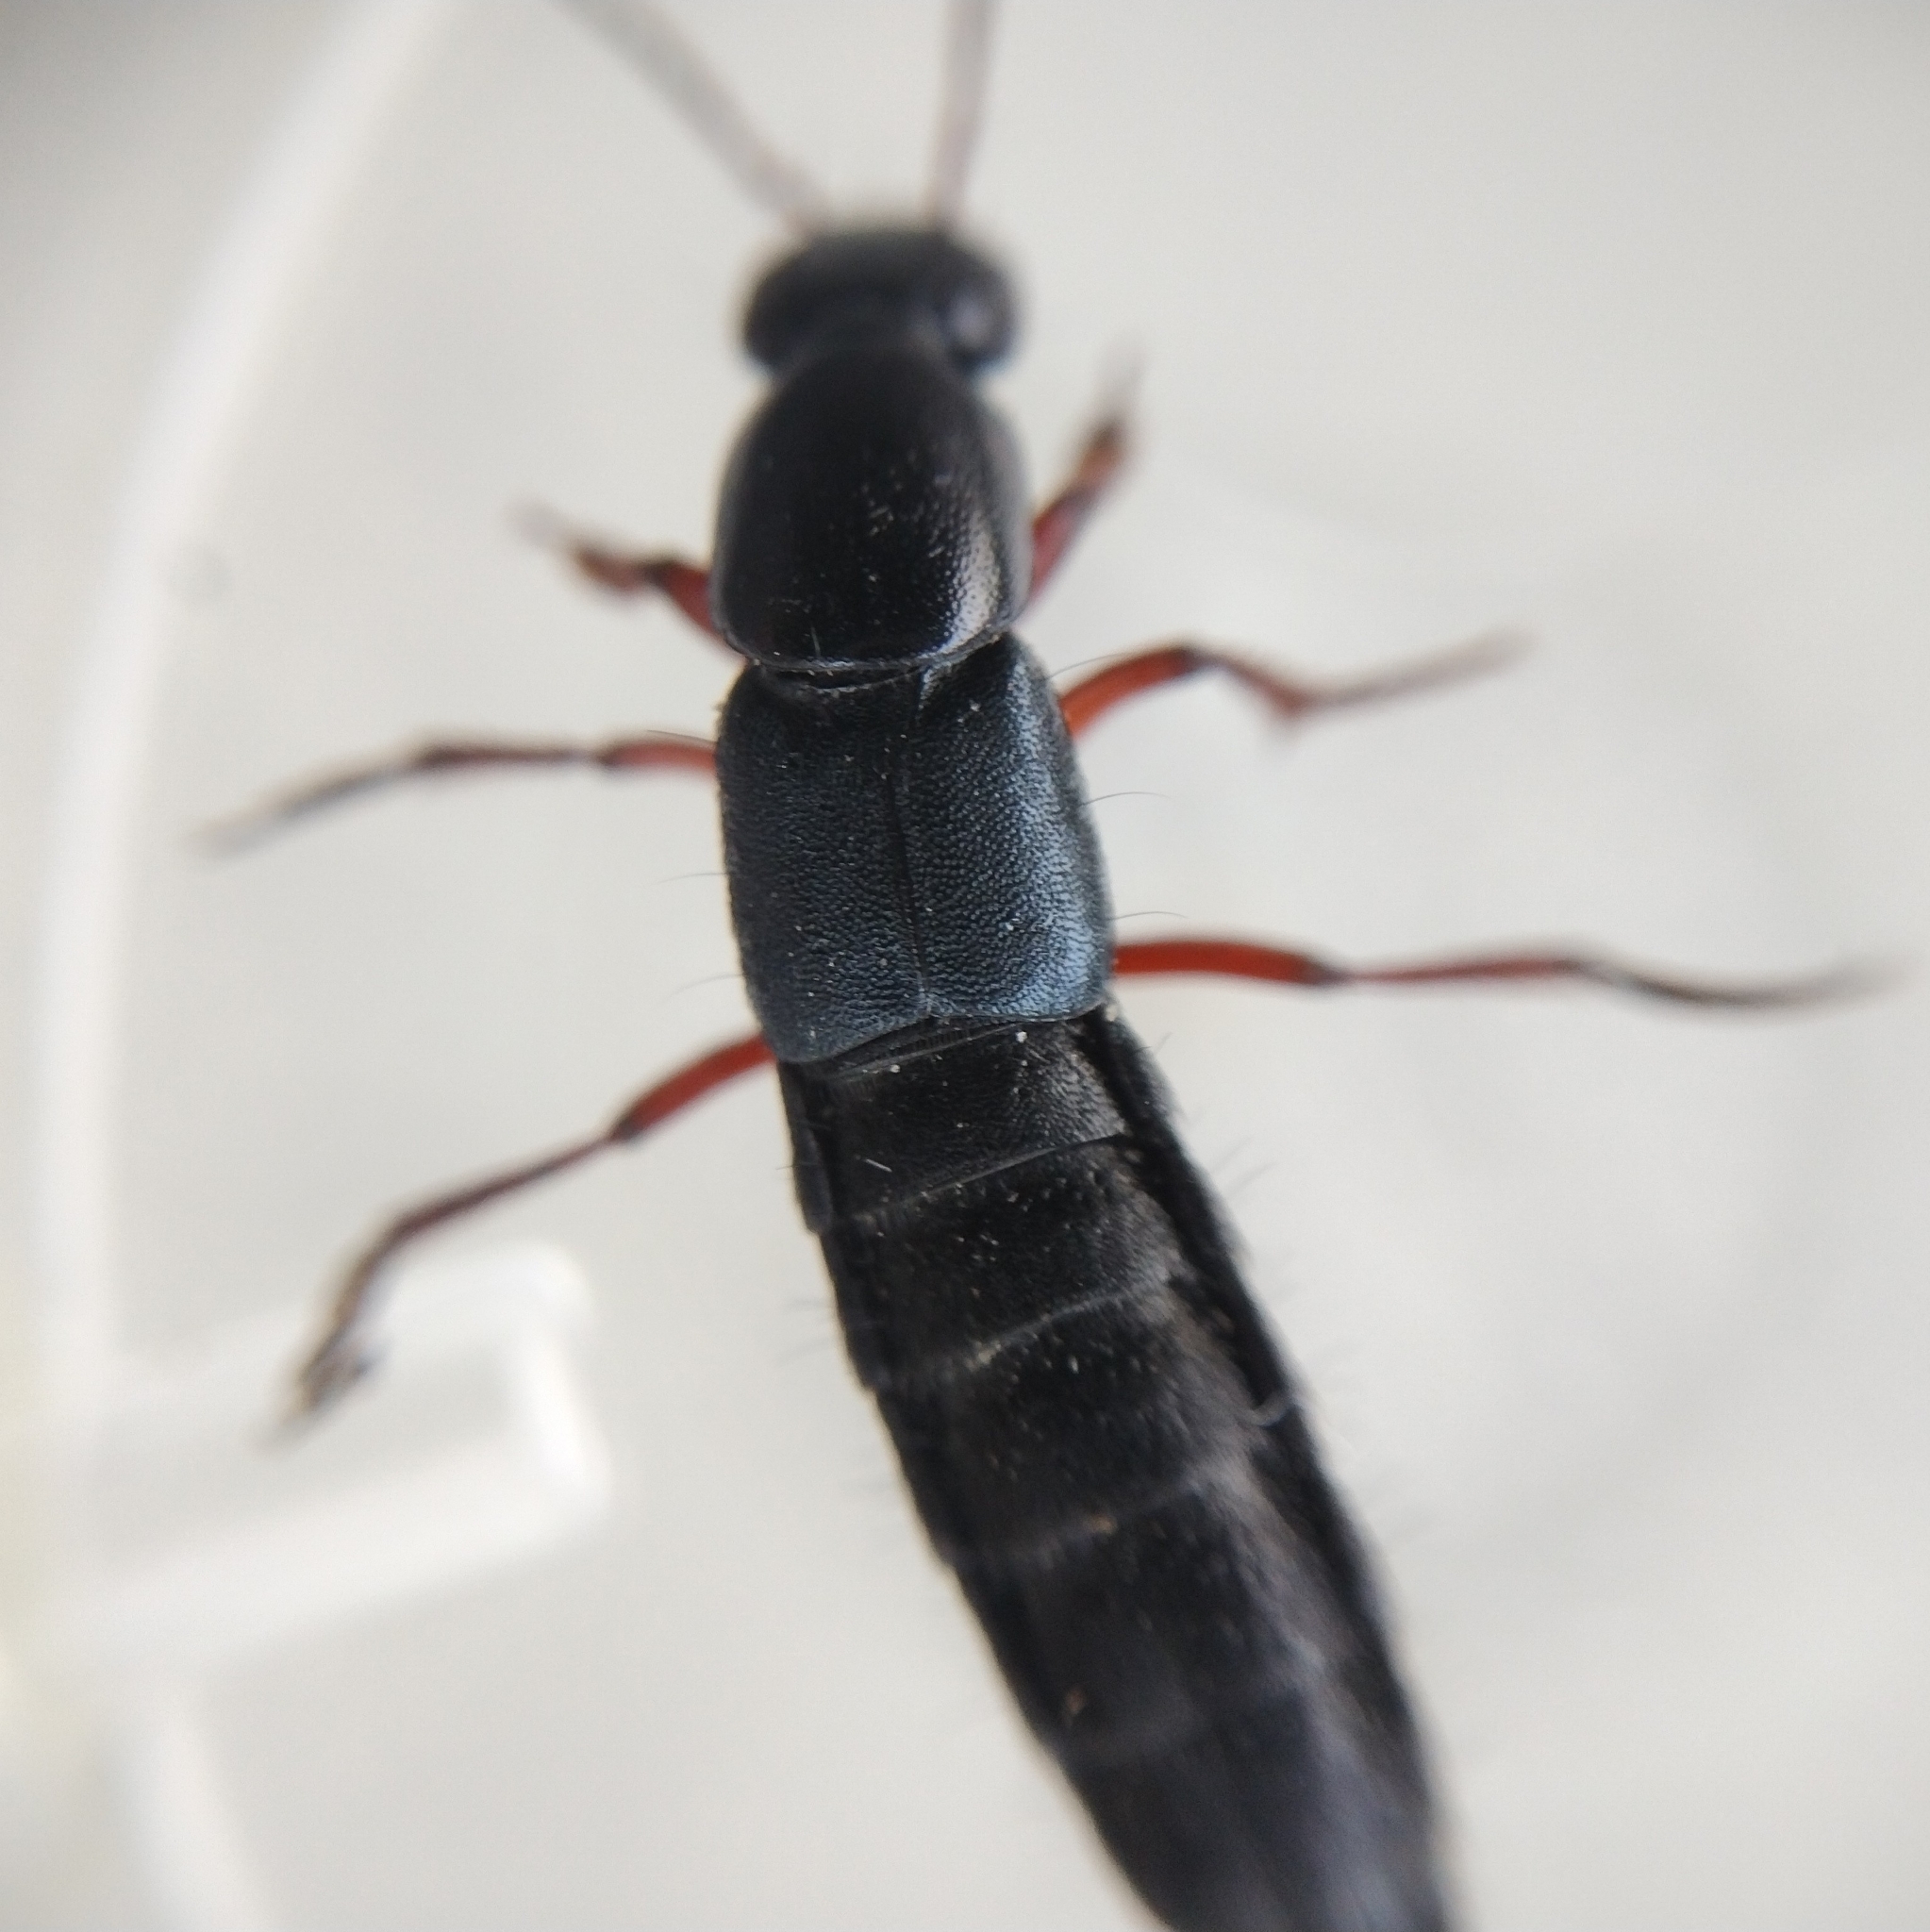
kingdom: Animalia
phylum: Arthropoda
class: Insecta
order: Coleoptera
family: Staphylinidae
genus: Tasgius
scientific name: Tasgius pedator
